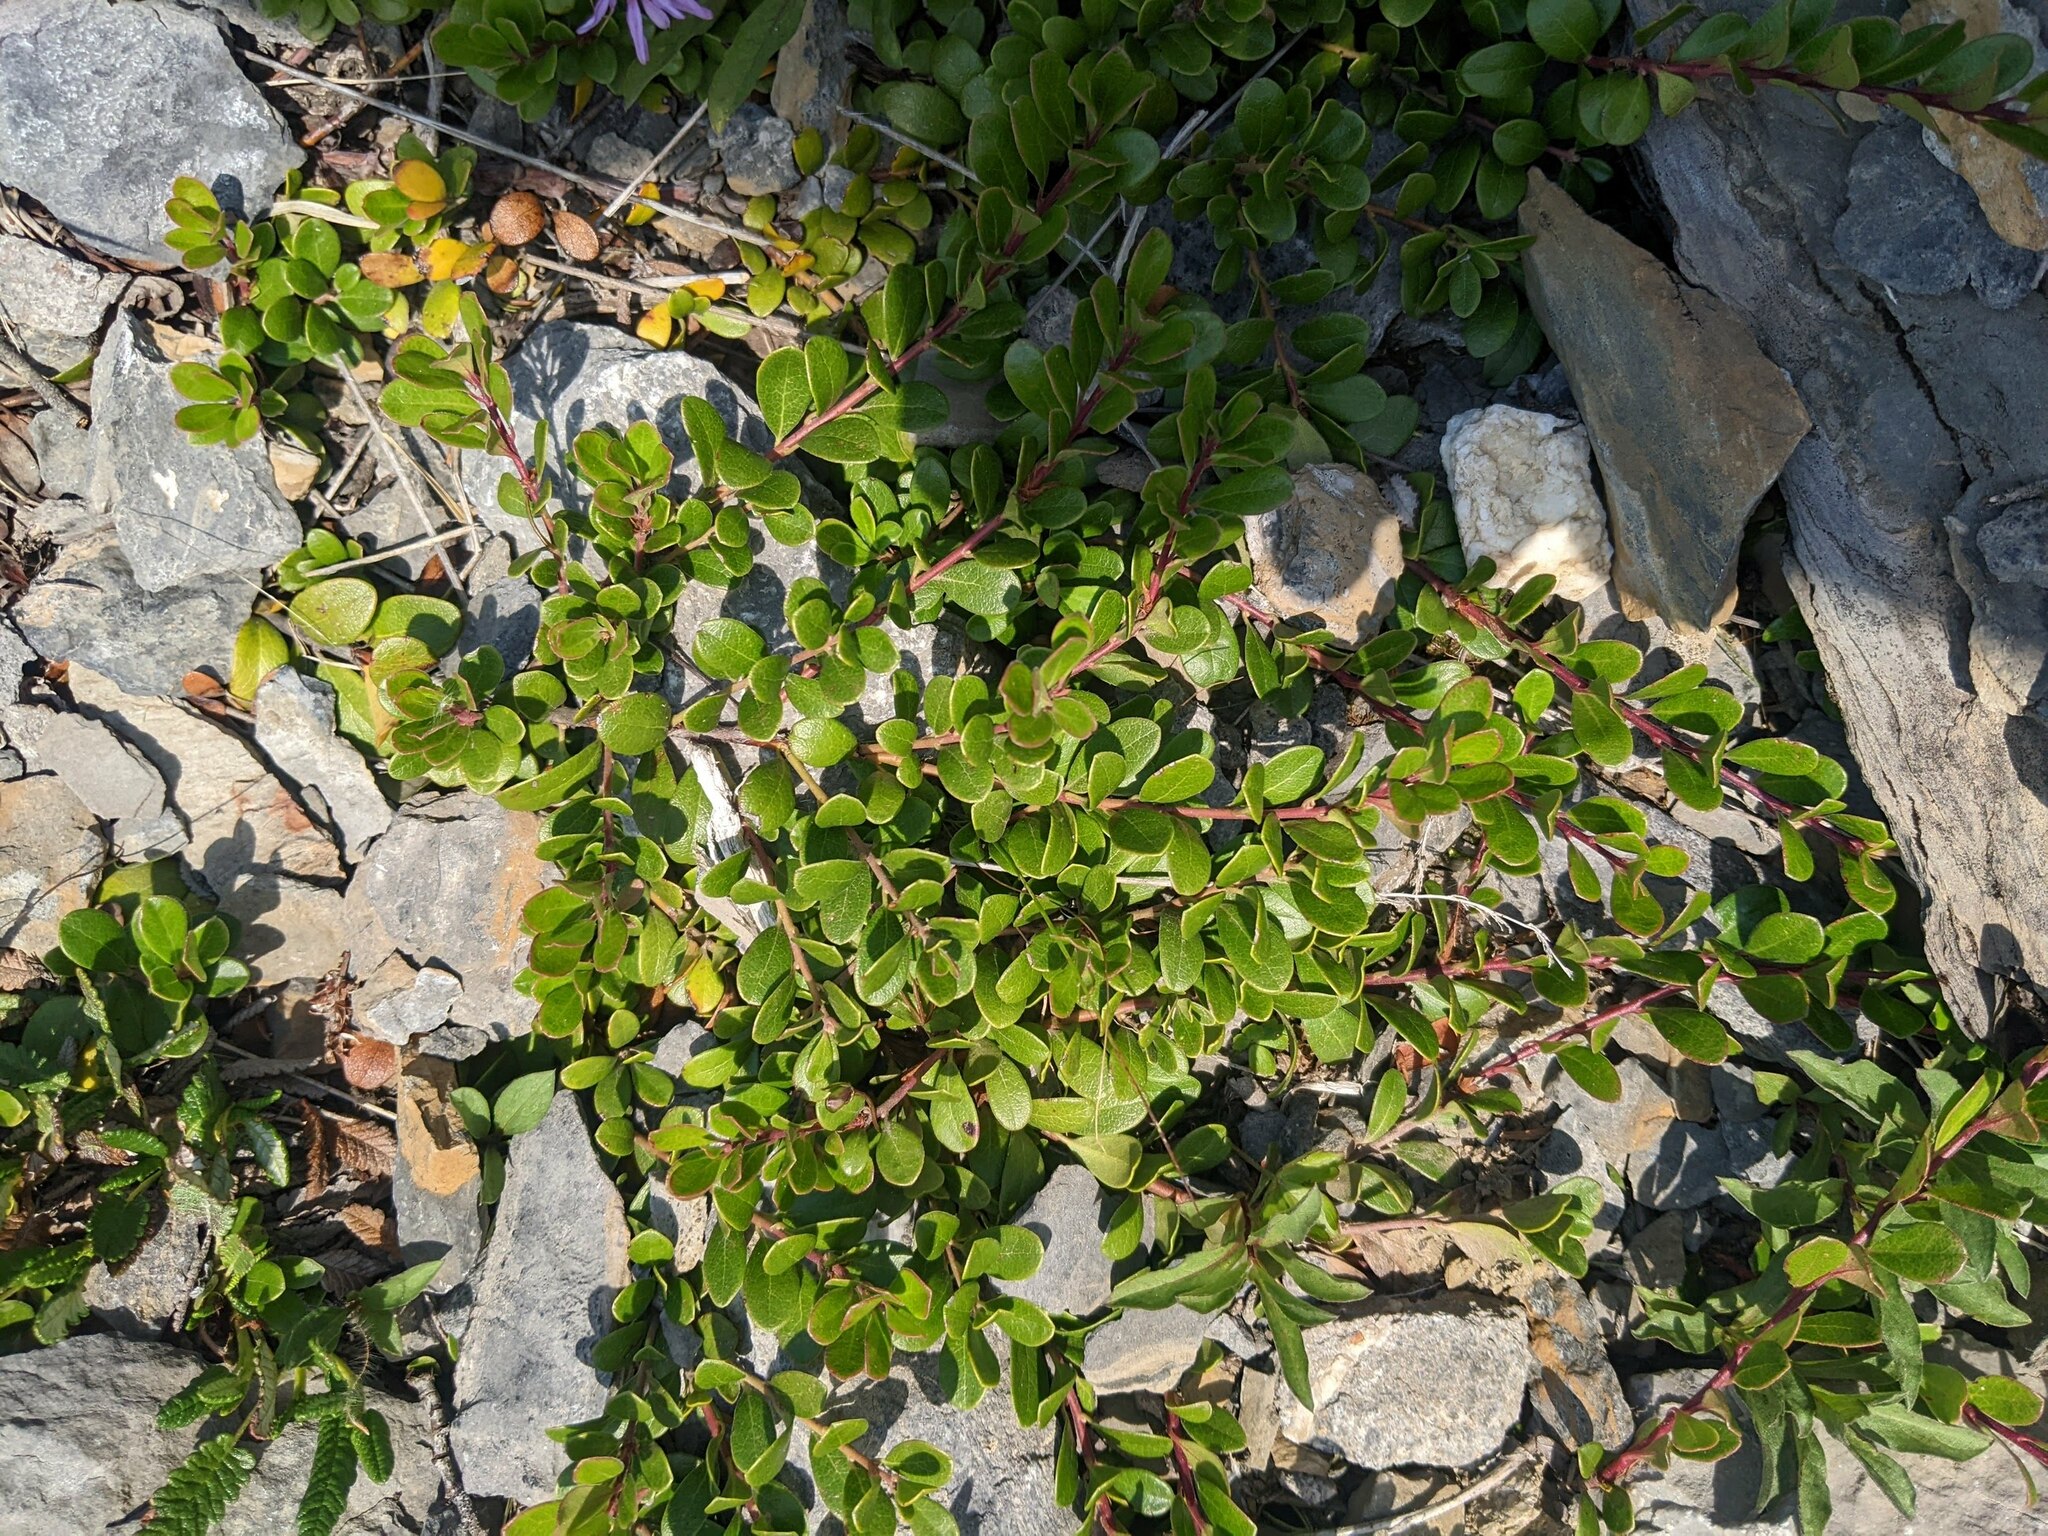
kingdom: Plantae
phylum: Tracheophyta
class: Magnoliopsida
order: Ericales
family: Ericaceae
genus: Arctostaphylos
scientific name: Arctostaphylos uva-ursi
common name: Bearberry
